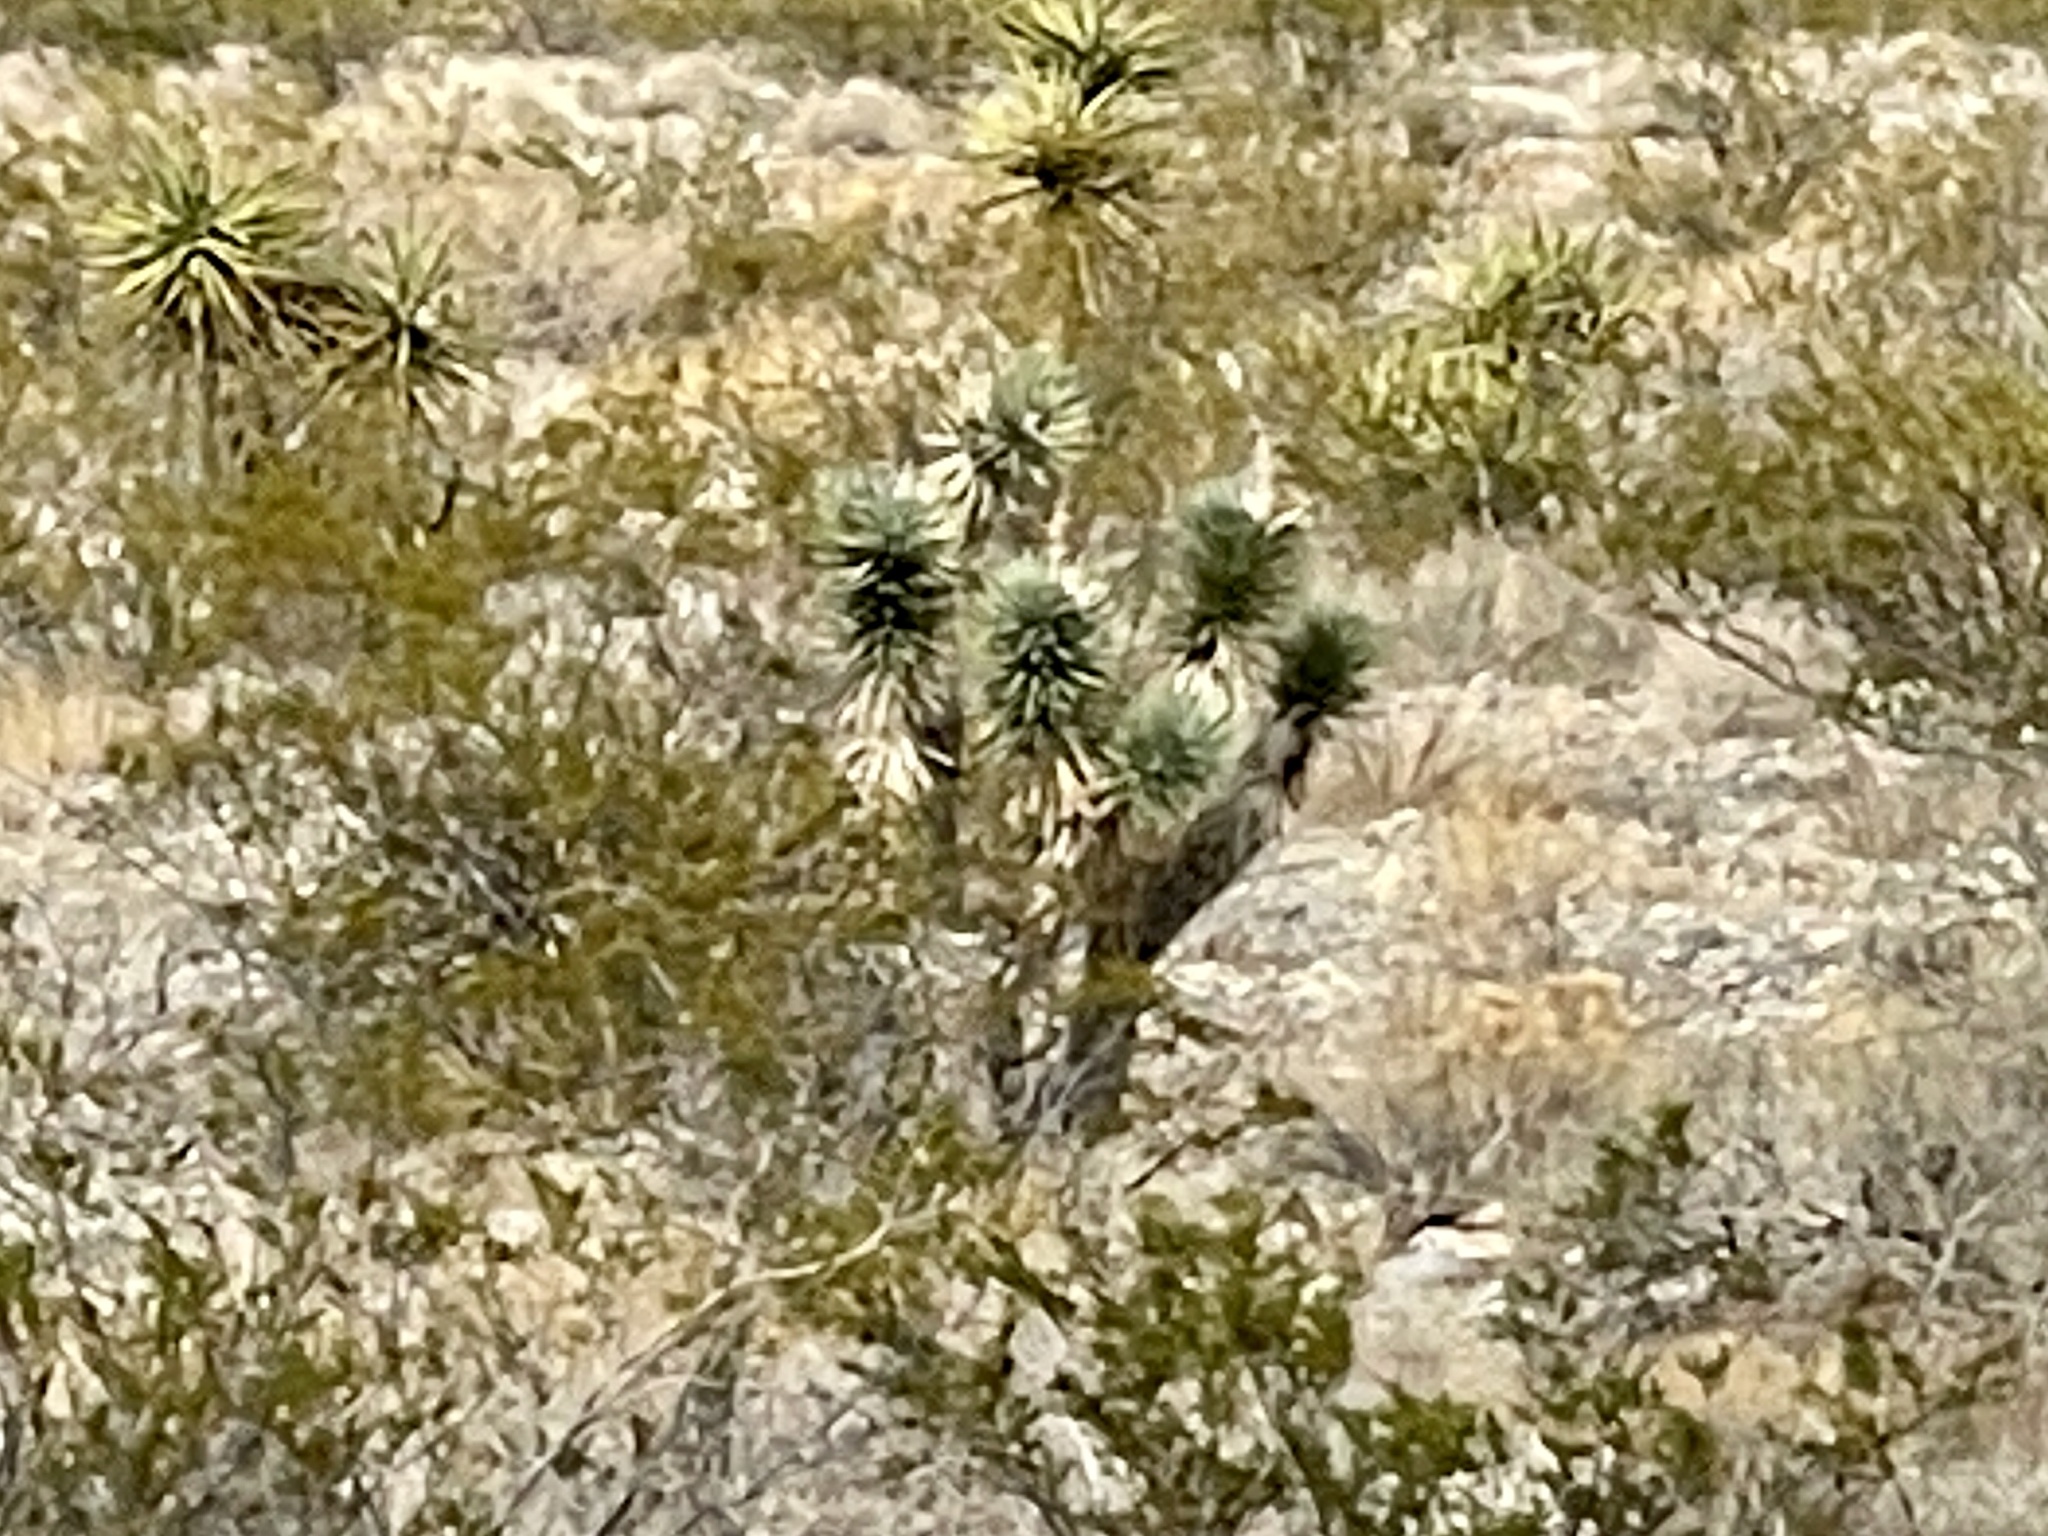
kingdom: Plantae
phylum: Tracheophyta
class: Liliopsida
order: Asparagales
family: Asparagaceae
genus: Yucca
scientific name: Yucca brevifolia
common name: Joshua tree
